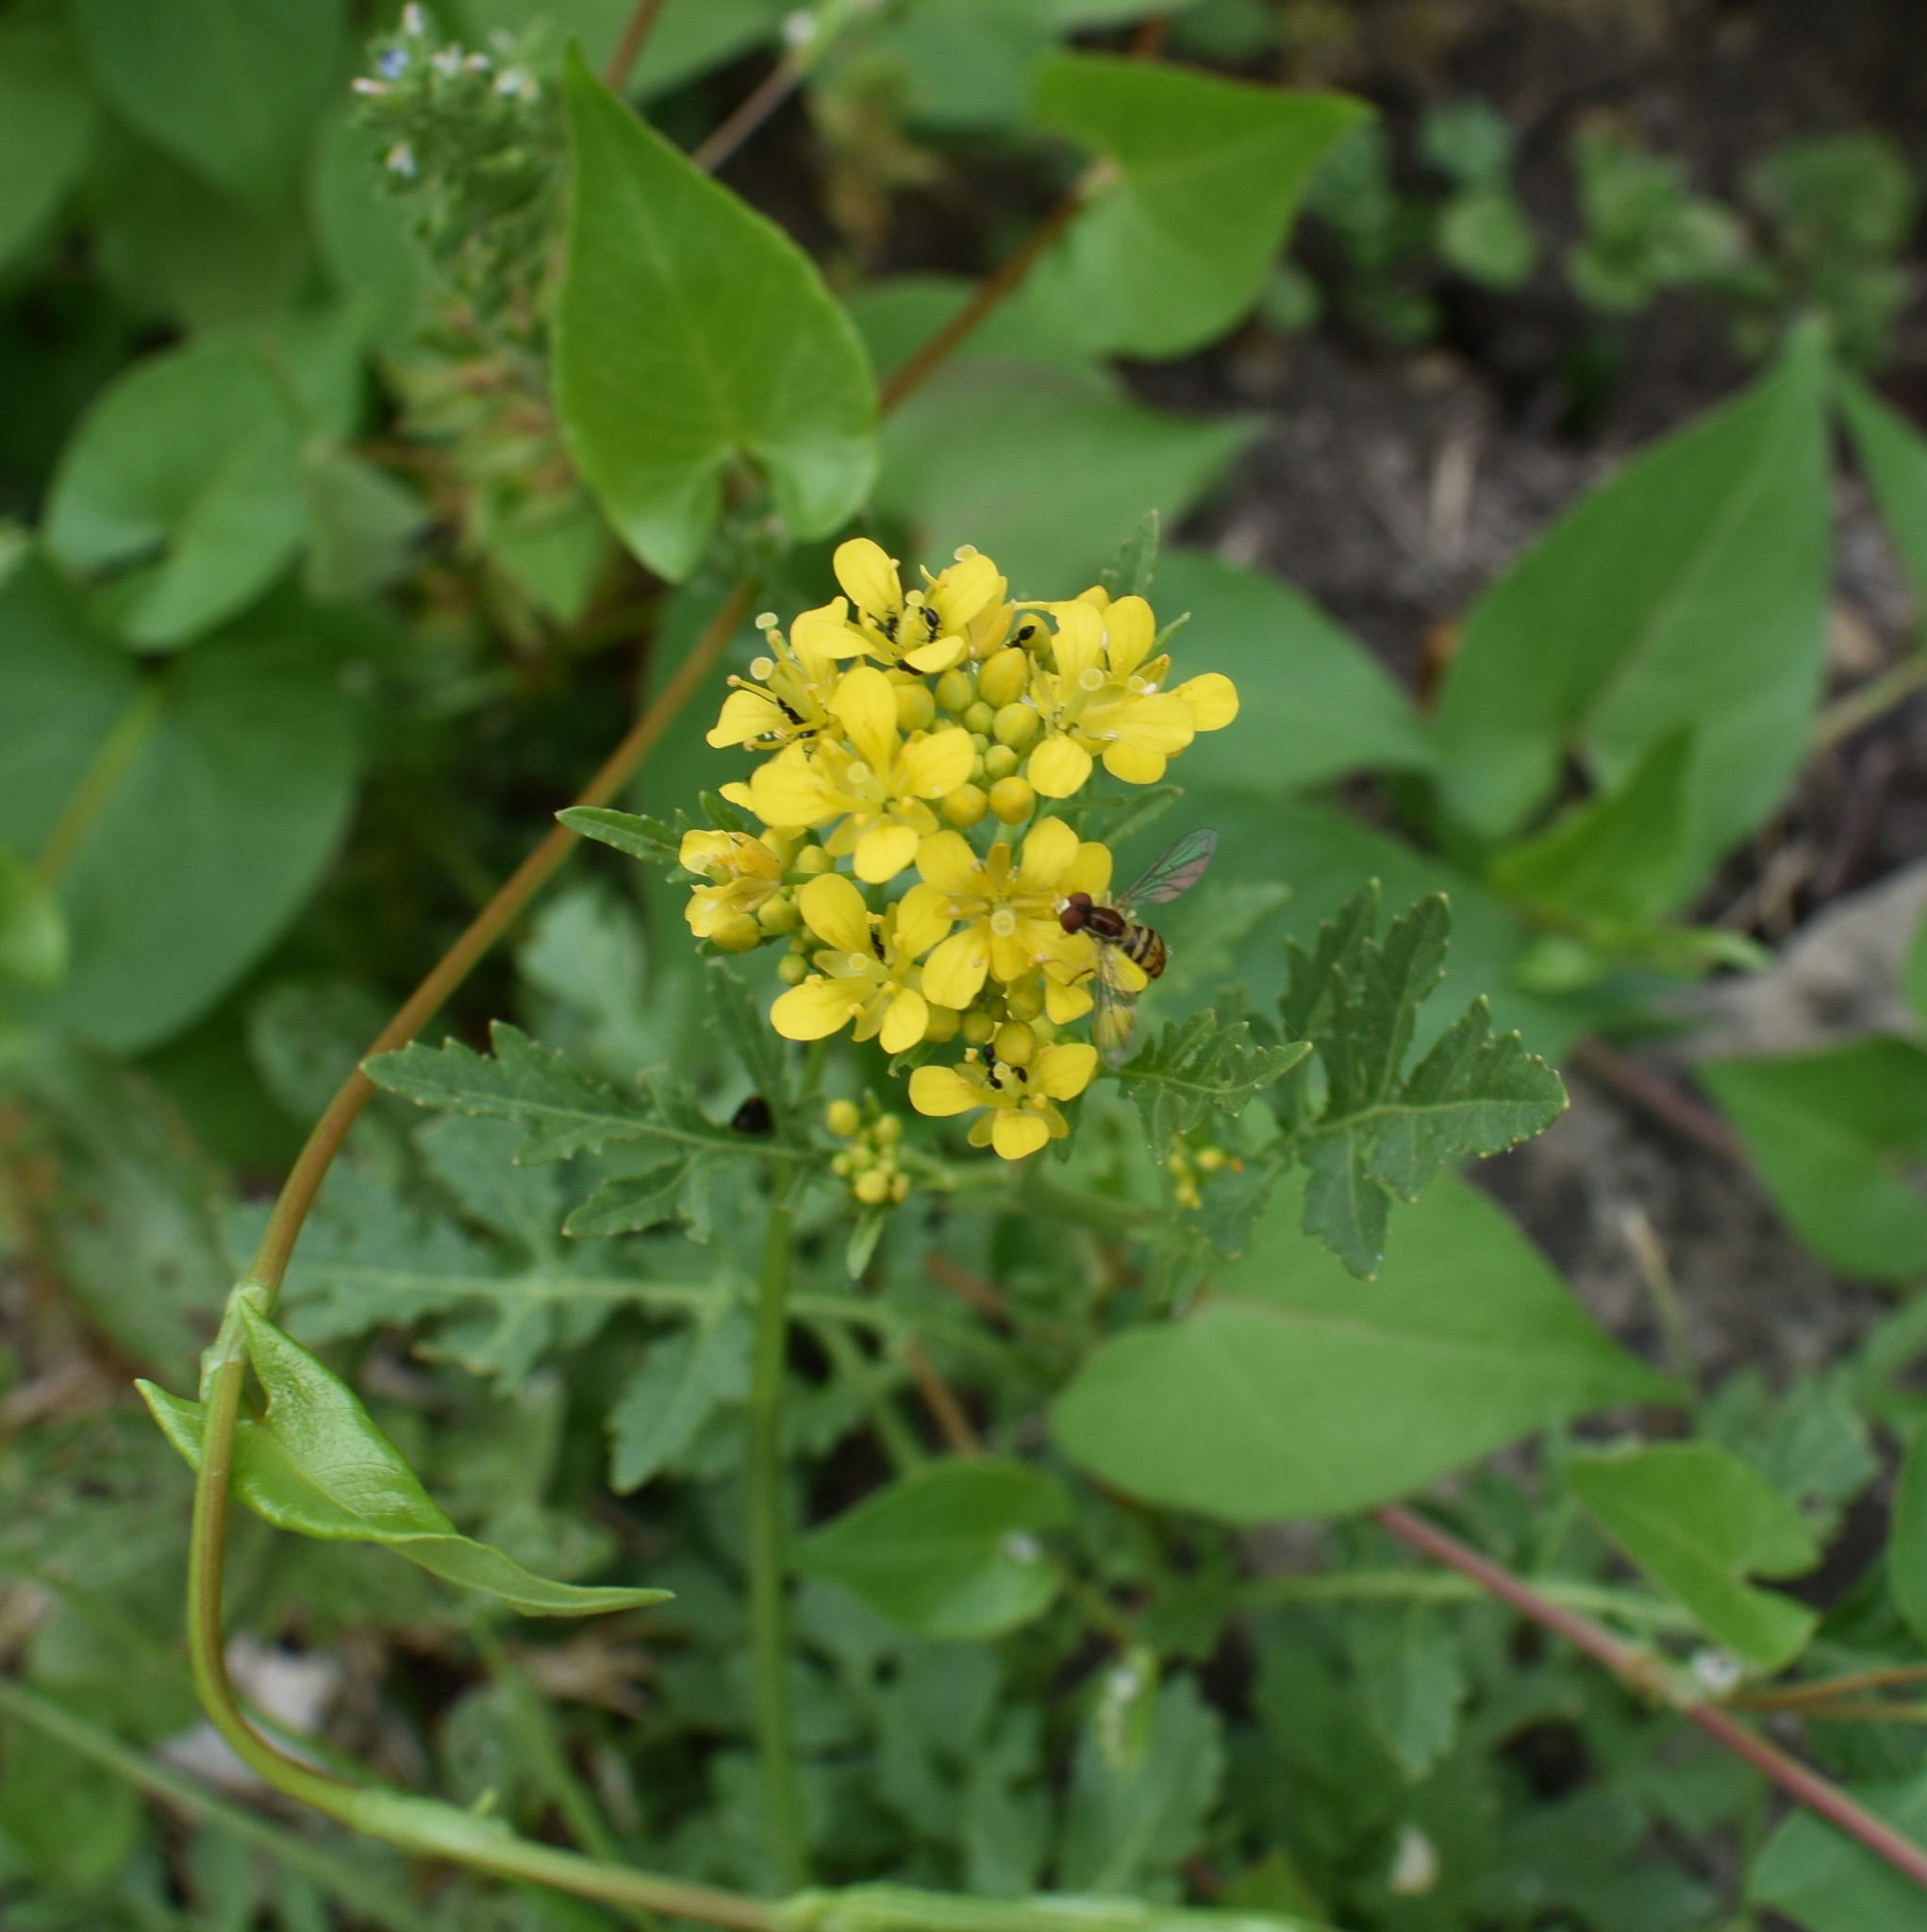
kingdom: Animalia
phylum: Arthropoda
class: Insecta
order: Diptera
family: Syrphidae
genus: Toxomerus
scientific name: Toxomerus marginatus
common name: Syrphid fly
